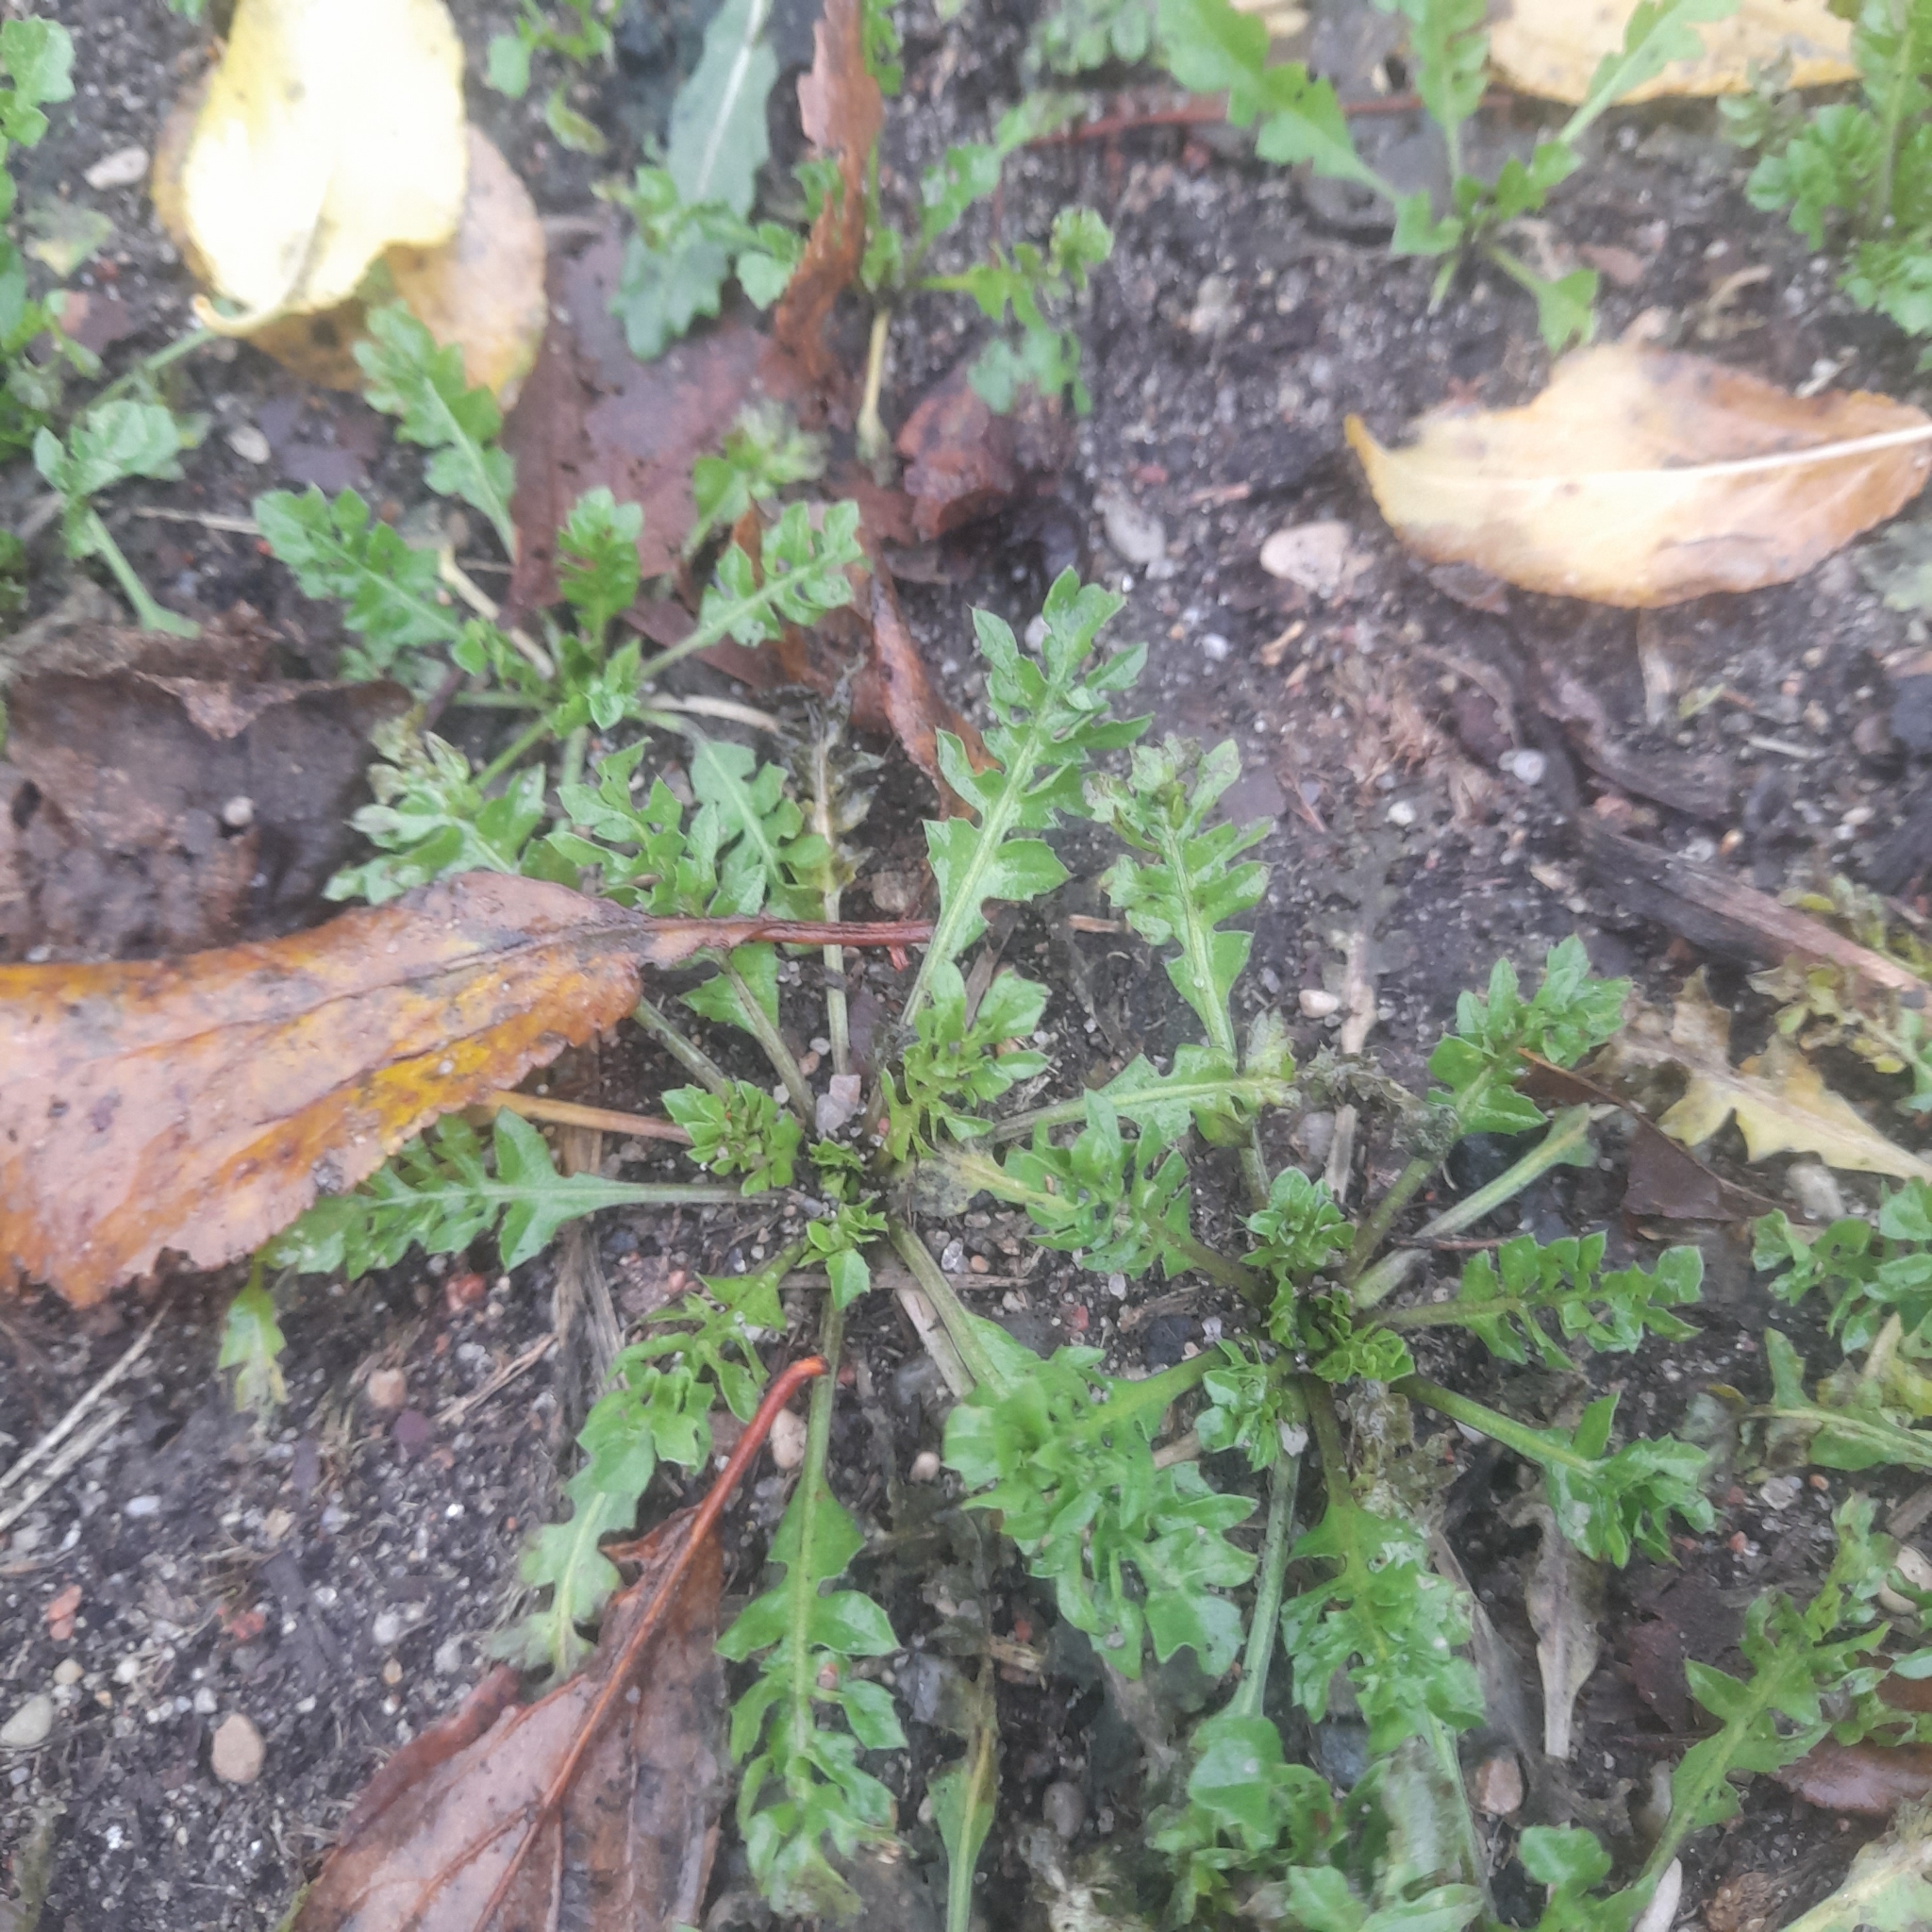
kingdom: Plantae
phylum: Tracheophyta
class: Magnoliopsida
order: Brassicales
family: Brassicaceae
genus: Capsella
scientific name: Capsella bursa-pastoris
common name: Shepherd's purse
